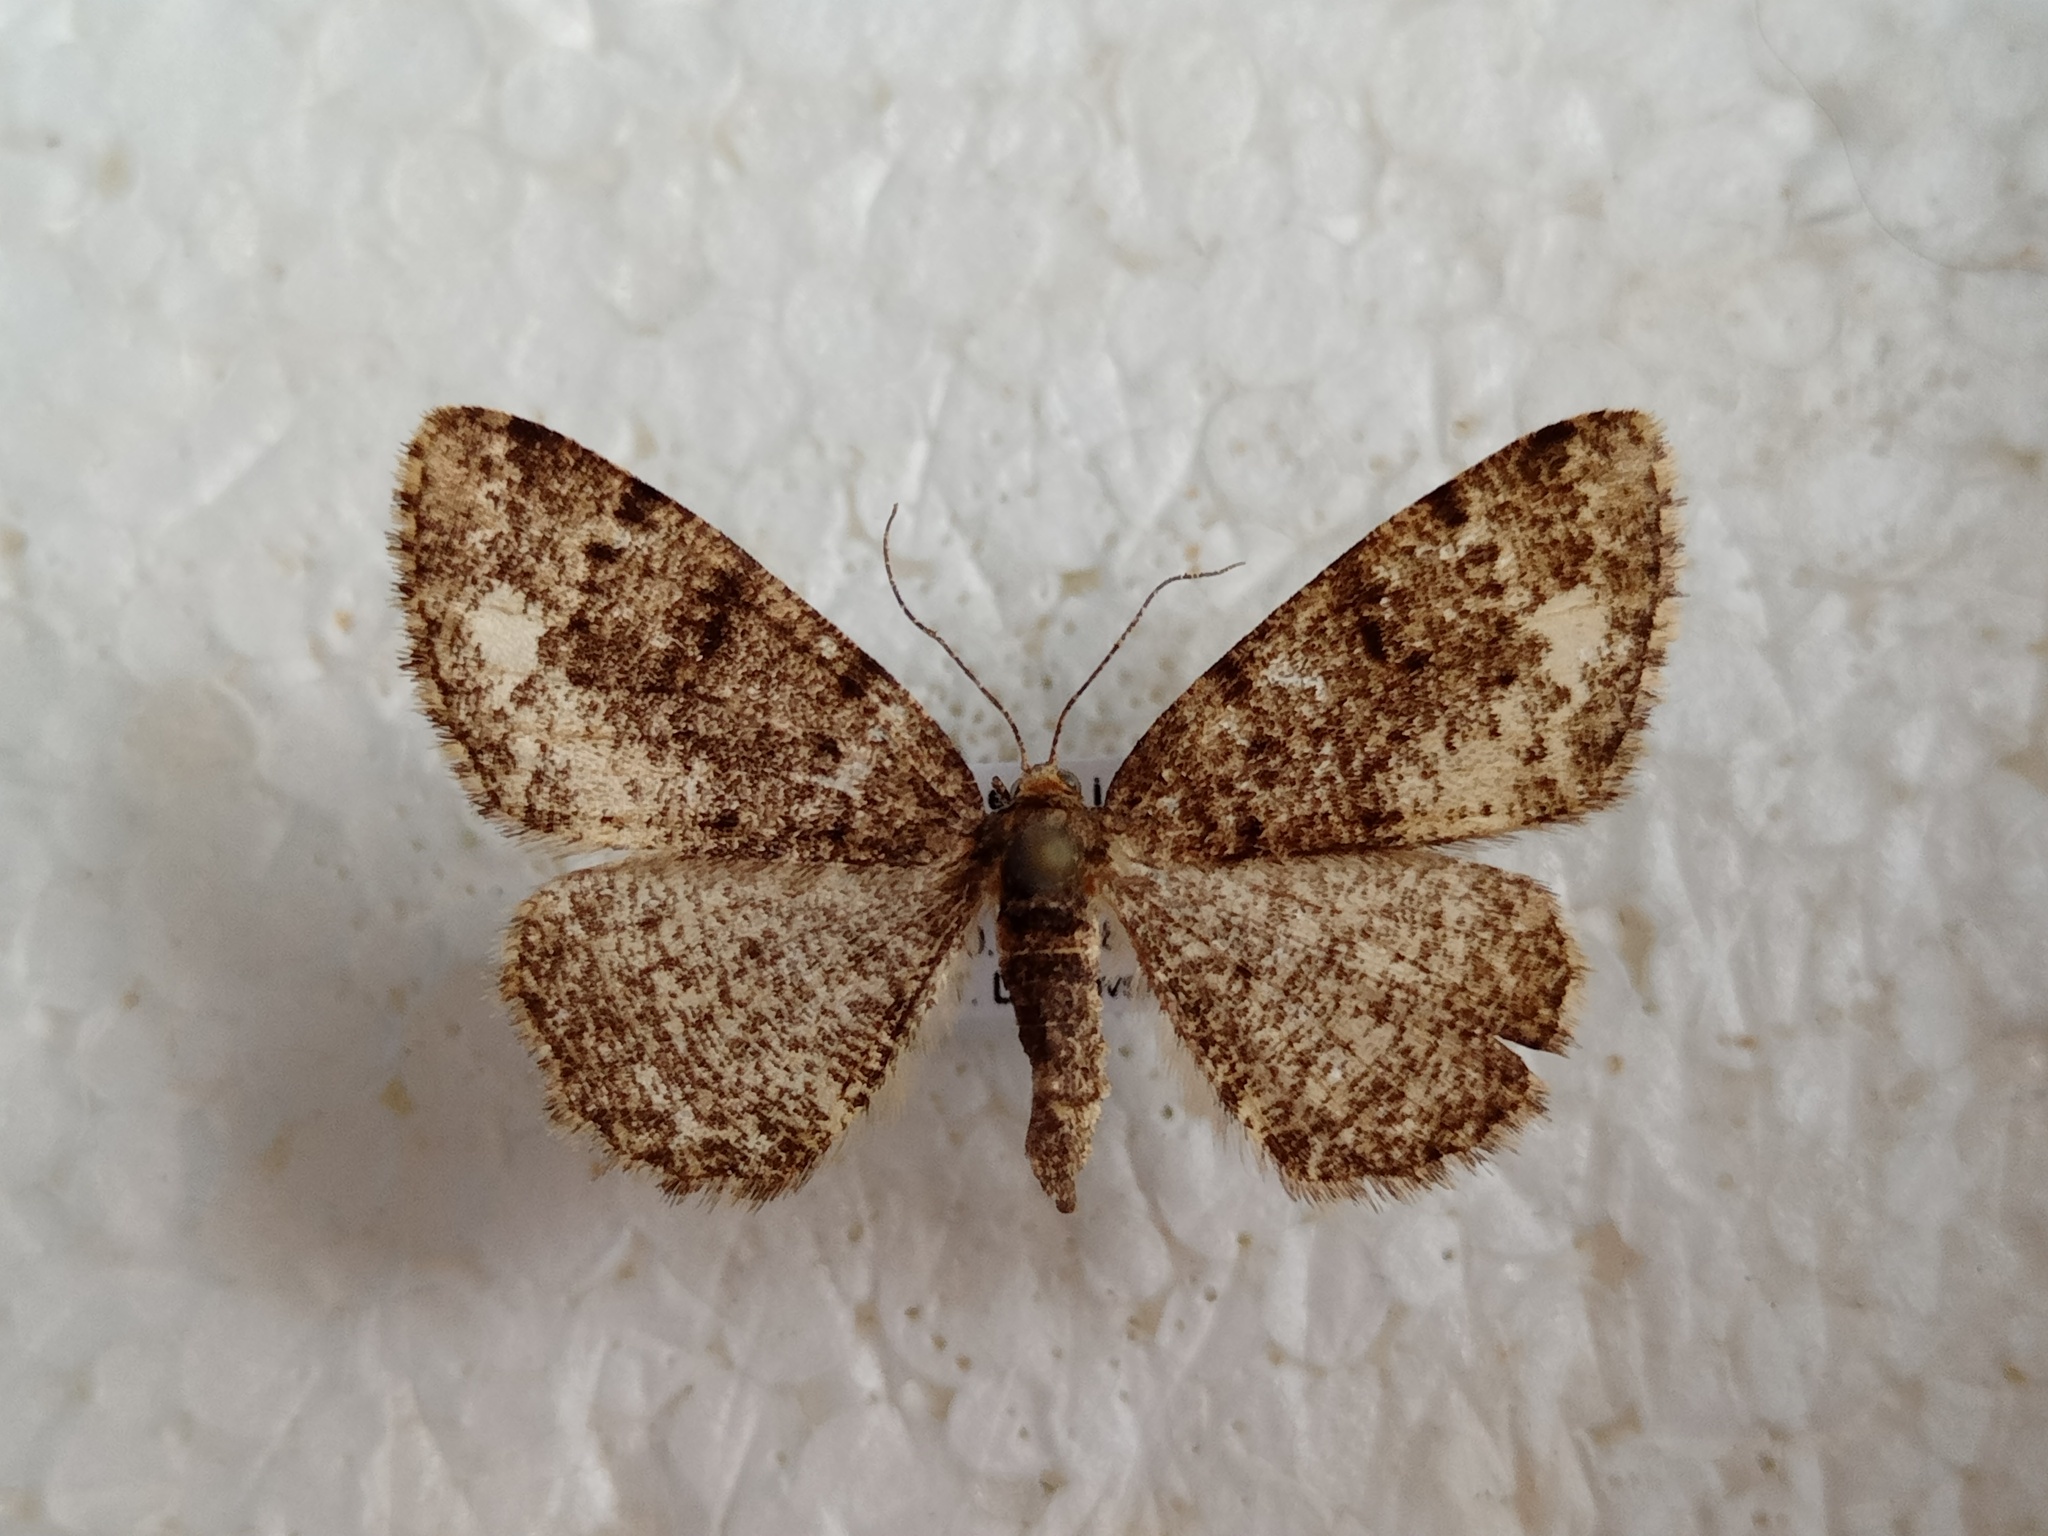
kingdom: Animalia
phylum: Arthropoda
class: Insecta
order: Lepidoptera
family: Geometridae
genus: Parectropis
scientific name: Parectropis similaria
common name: Brindled white-spot
